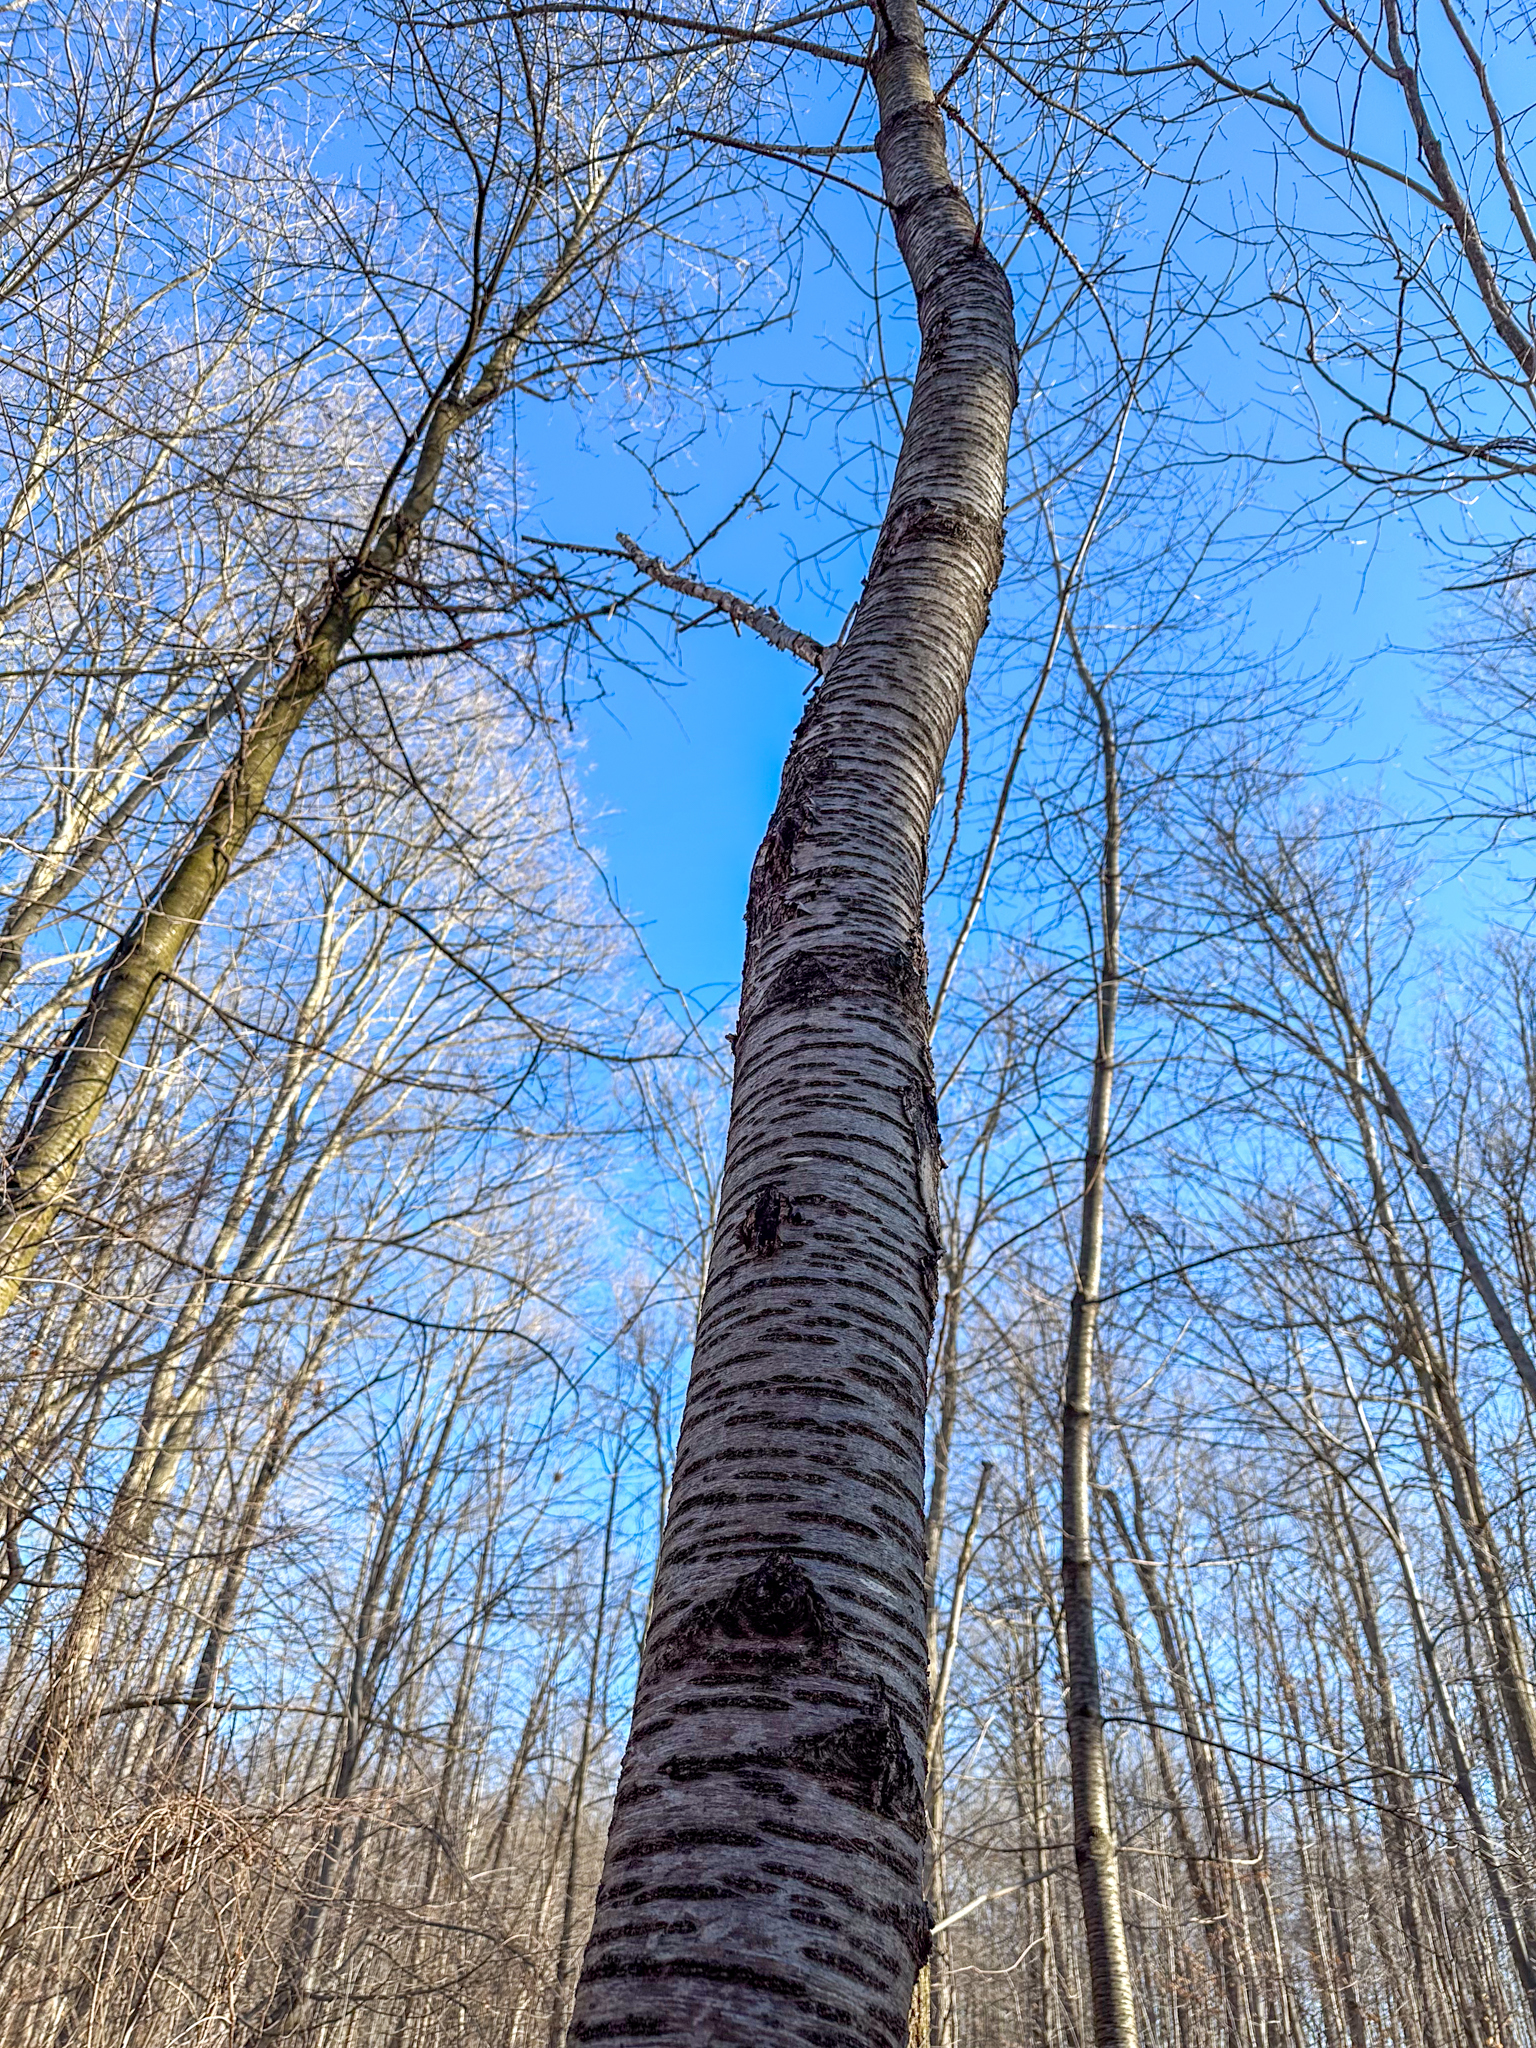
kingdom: Plantae
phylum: Tracheophyta
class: Magnoliopsida
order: Rosales
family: Rosaceae
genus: Prunus
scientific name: Prunus avium
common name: Sweet cherry
